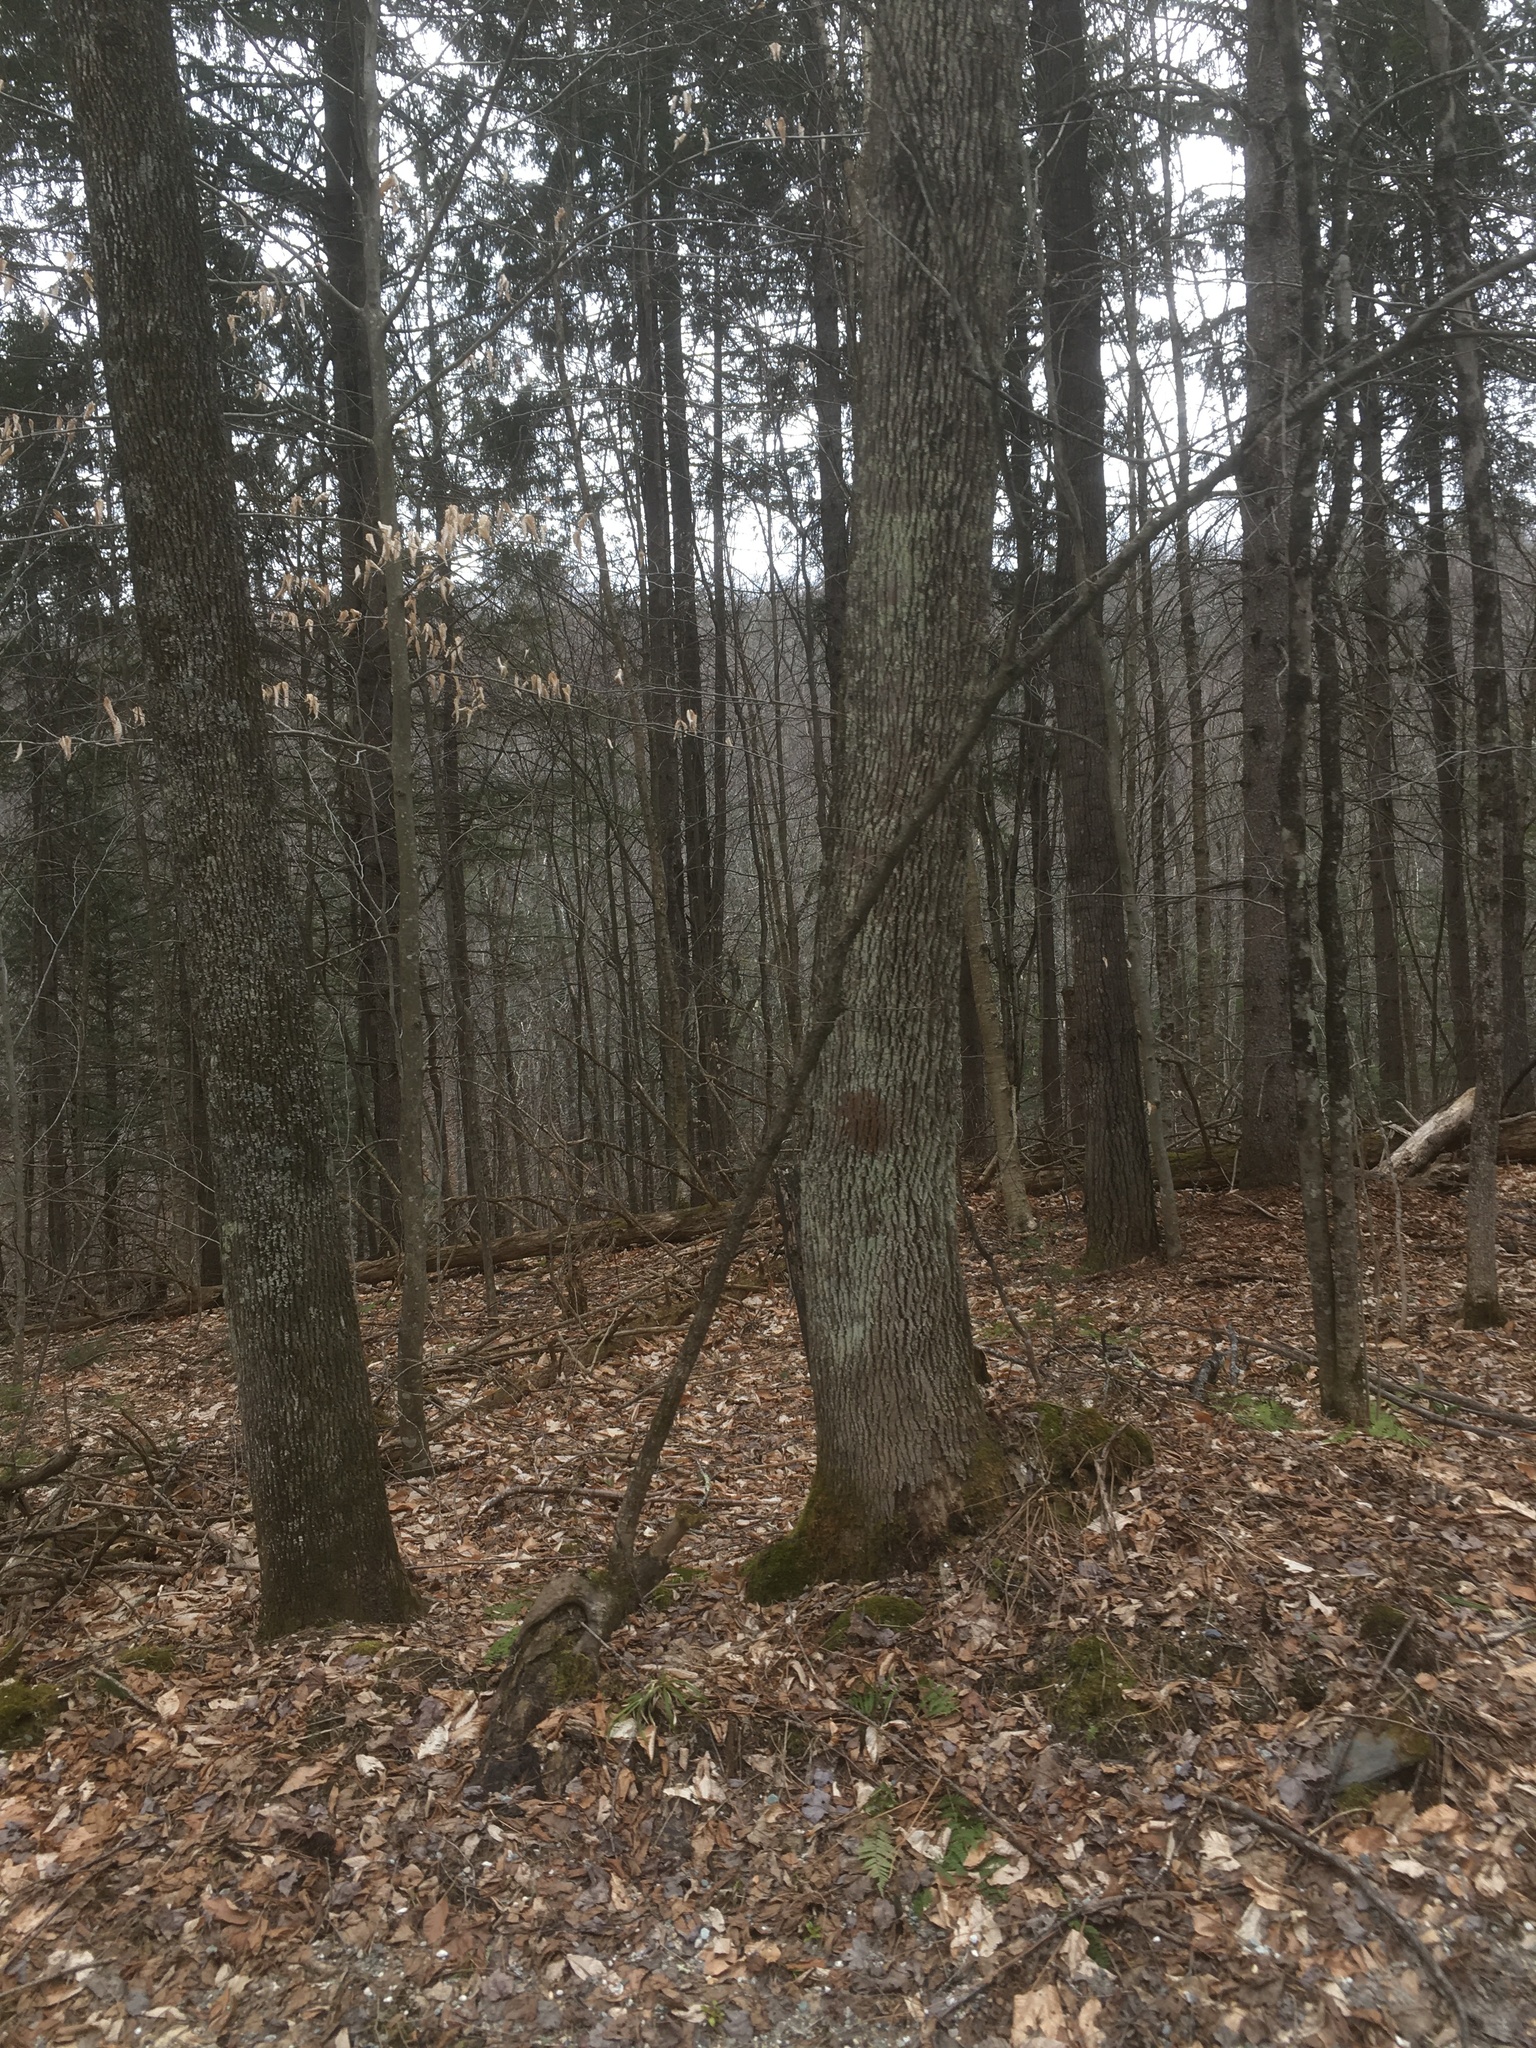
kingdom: Plantae
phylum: Tracheophyta
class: Magnoliopsida
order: Lamiales
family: Oleaceae
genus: Fraxinus
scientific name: Fraxinus americana
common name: White ash
